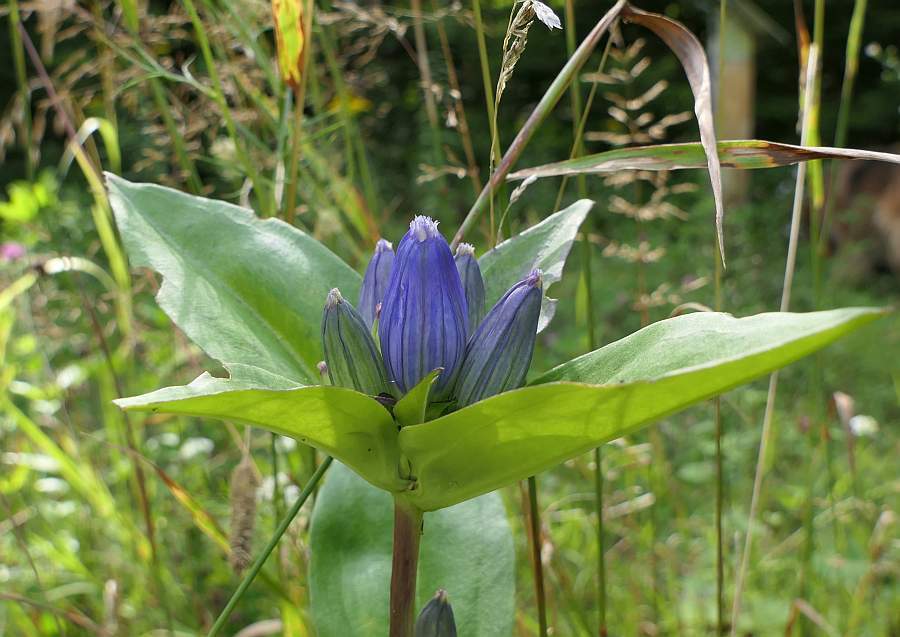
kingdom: Plantae
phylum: Tracheophyta
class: Magnoliopsida
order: Gentianales
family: Gentianaceae
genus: Gentiana
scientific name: Gentiana andrewsii
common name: Bottle gentian
